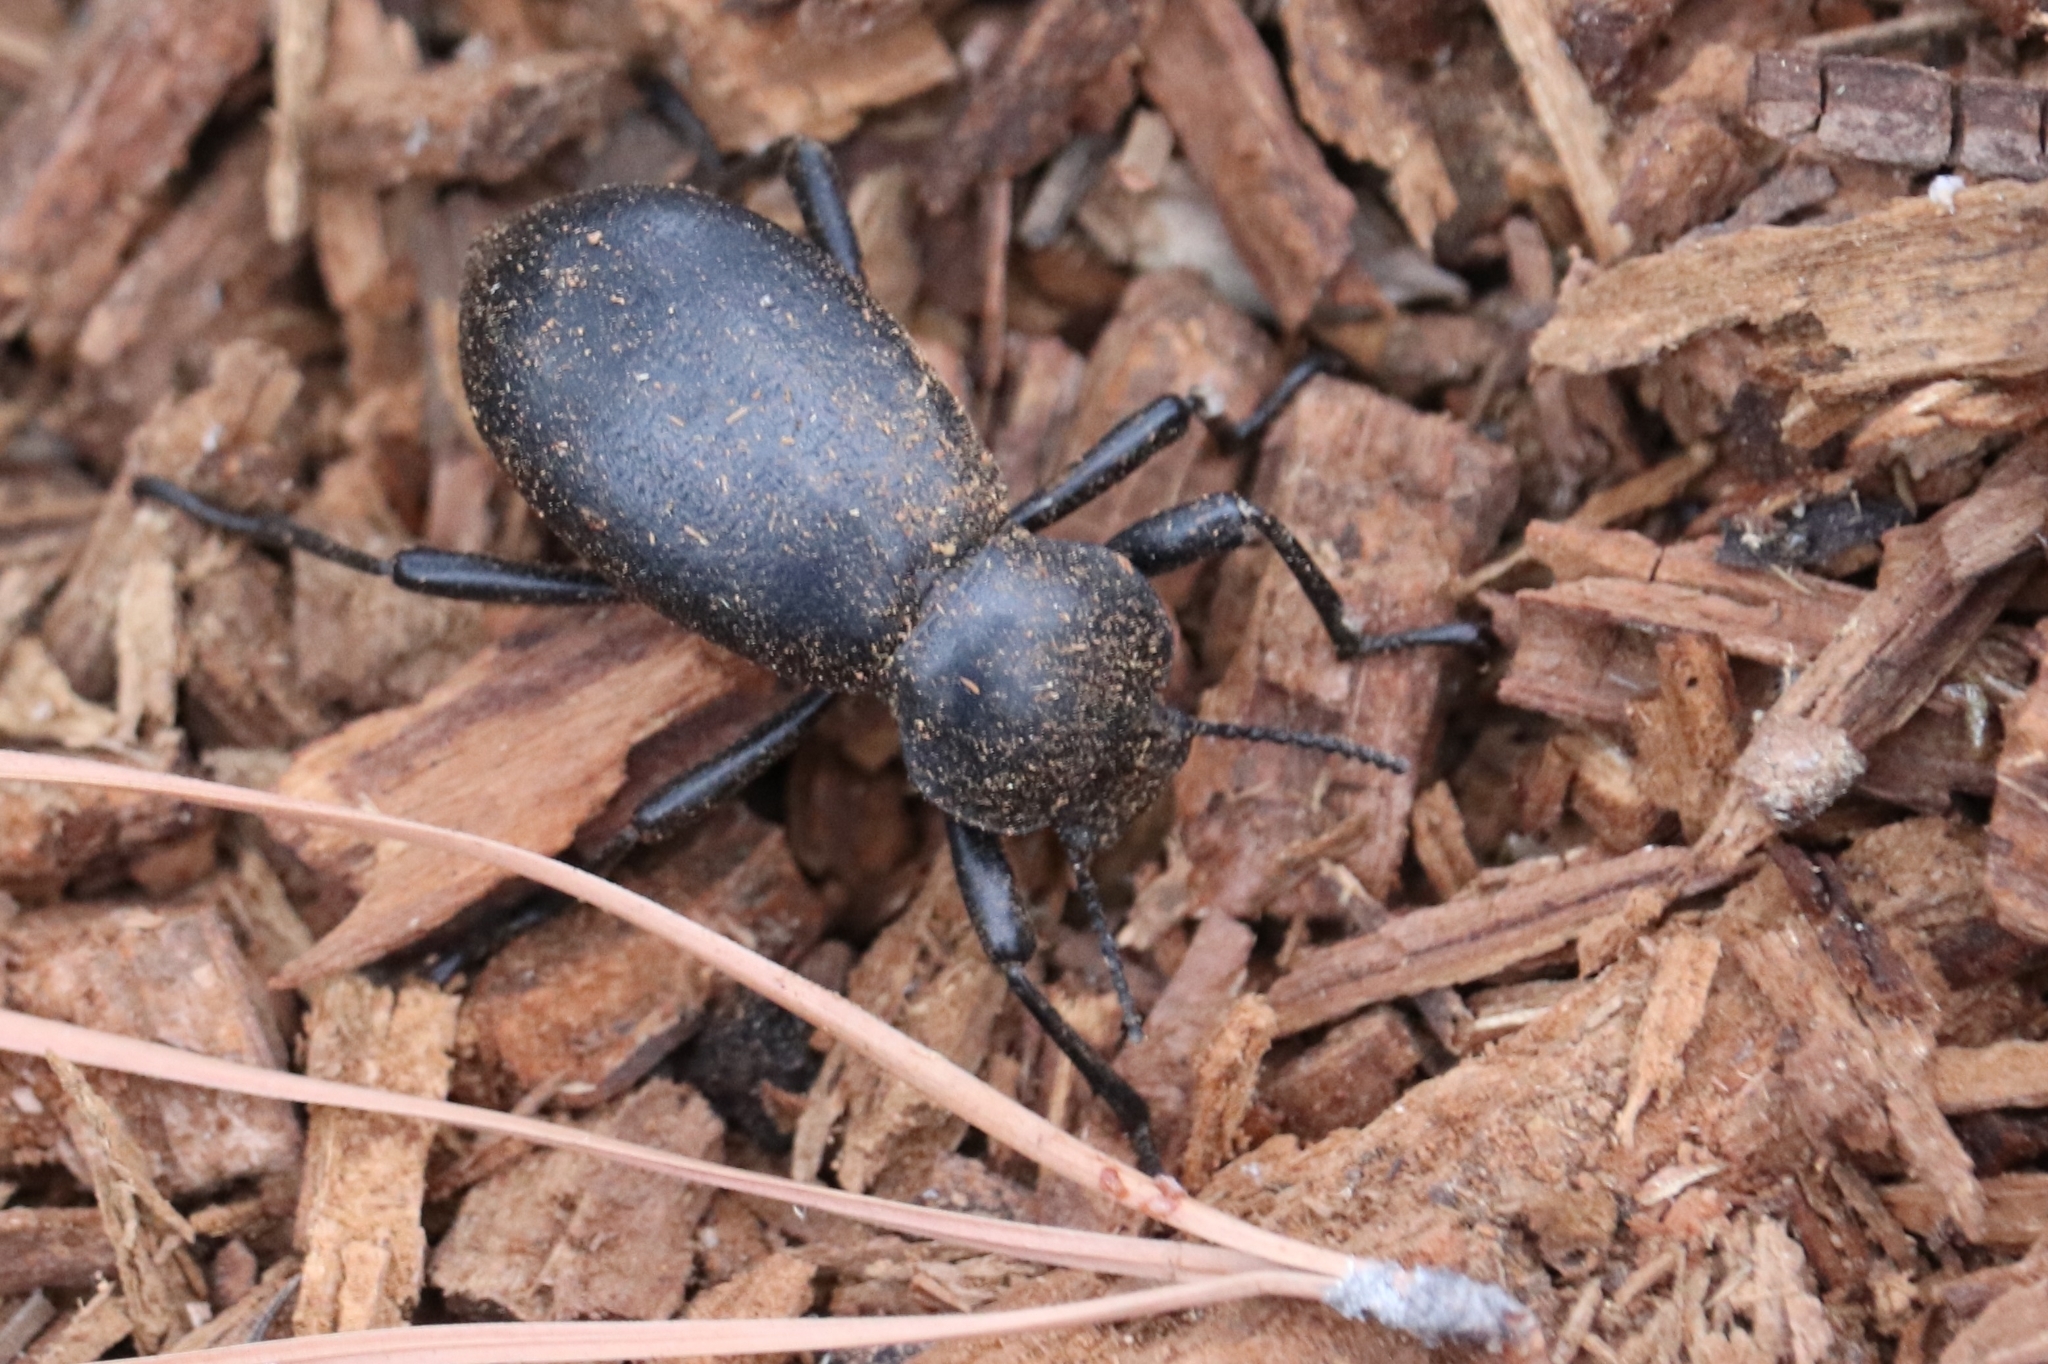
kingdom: Animalia
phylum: Arthropoda
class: Insecta
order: Coleoptera
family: Tenebrionidae
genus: Coelocnemis
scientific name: Coelocnemis dilaticollis
